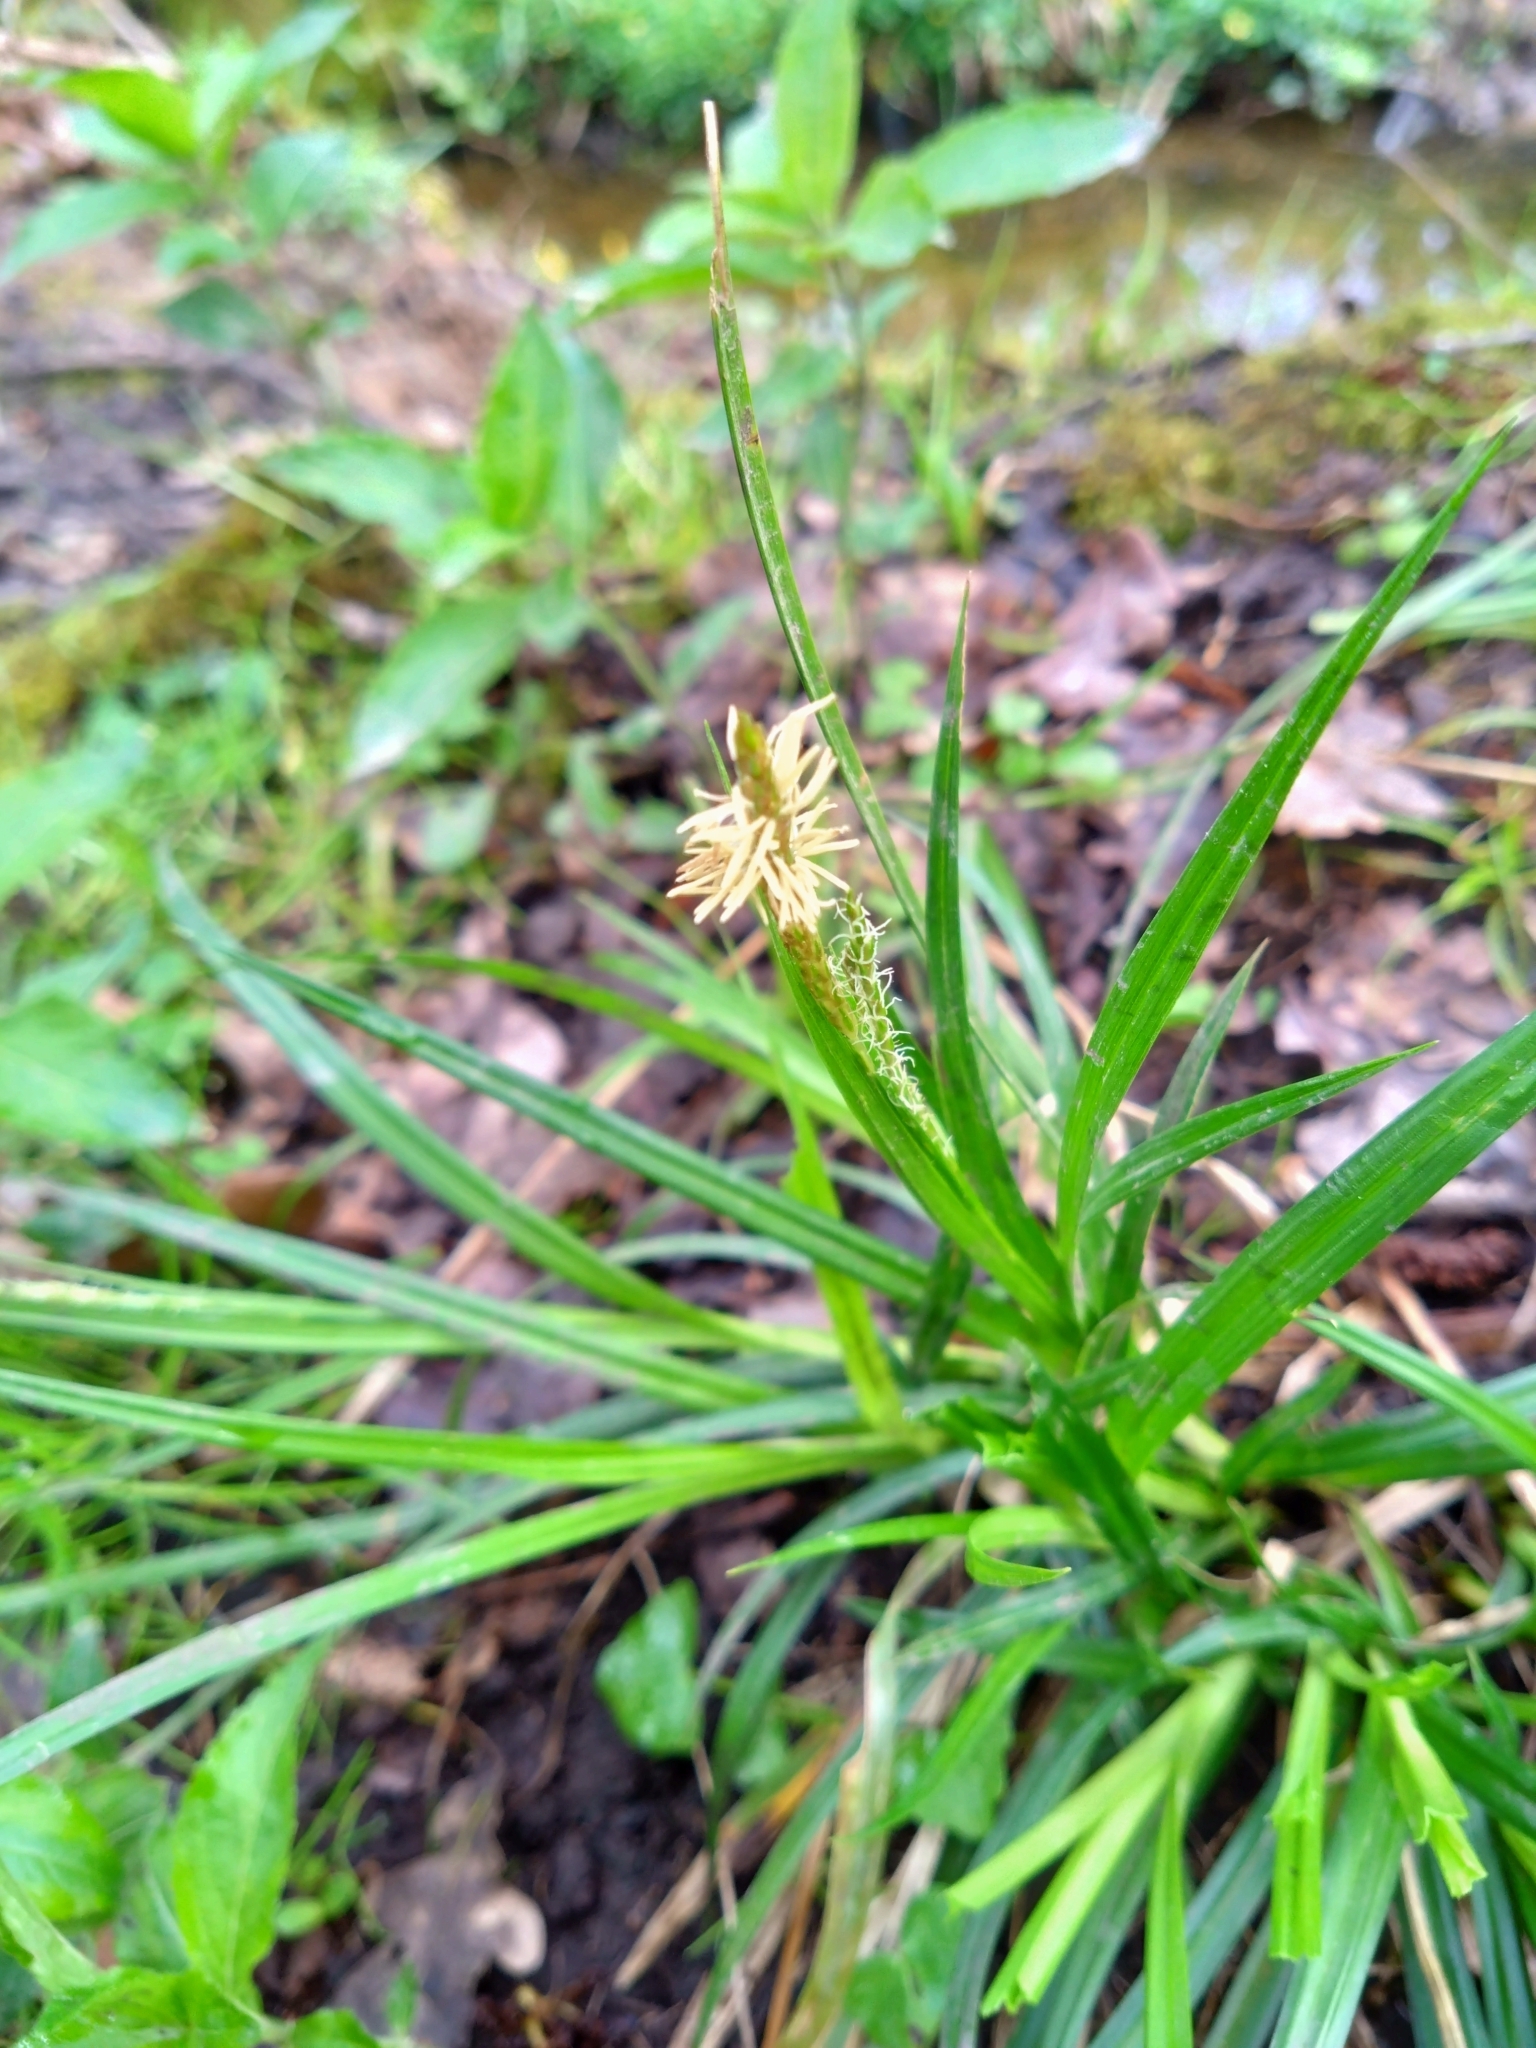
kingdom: Plantae
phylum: Tracheophyta
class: Liliopsida
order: Poales
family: Cyperaceae
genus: Carex
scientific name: Carex sylvatica
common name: Wood-sedge
